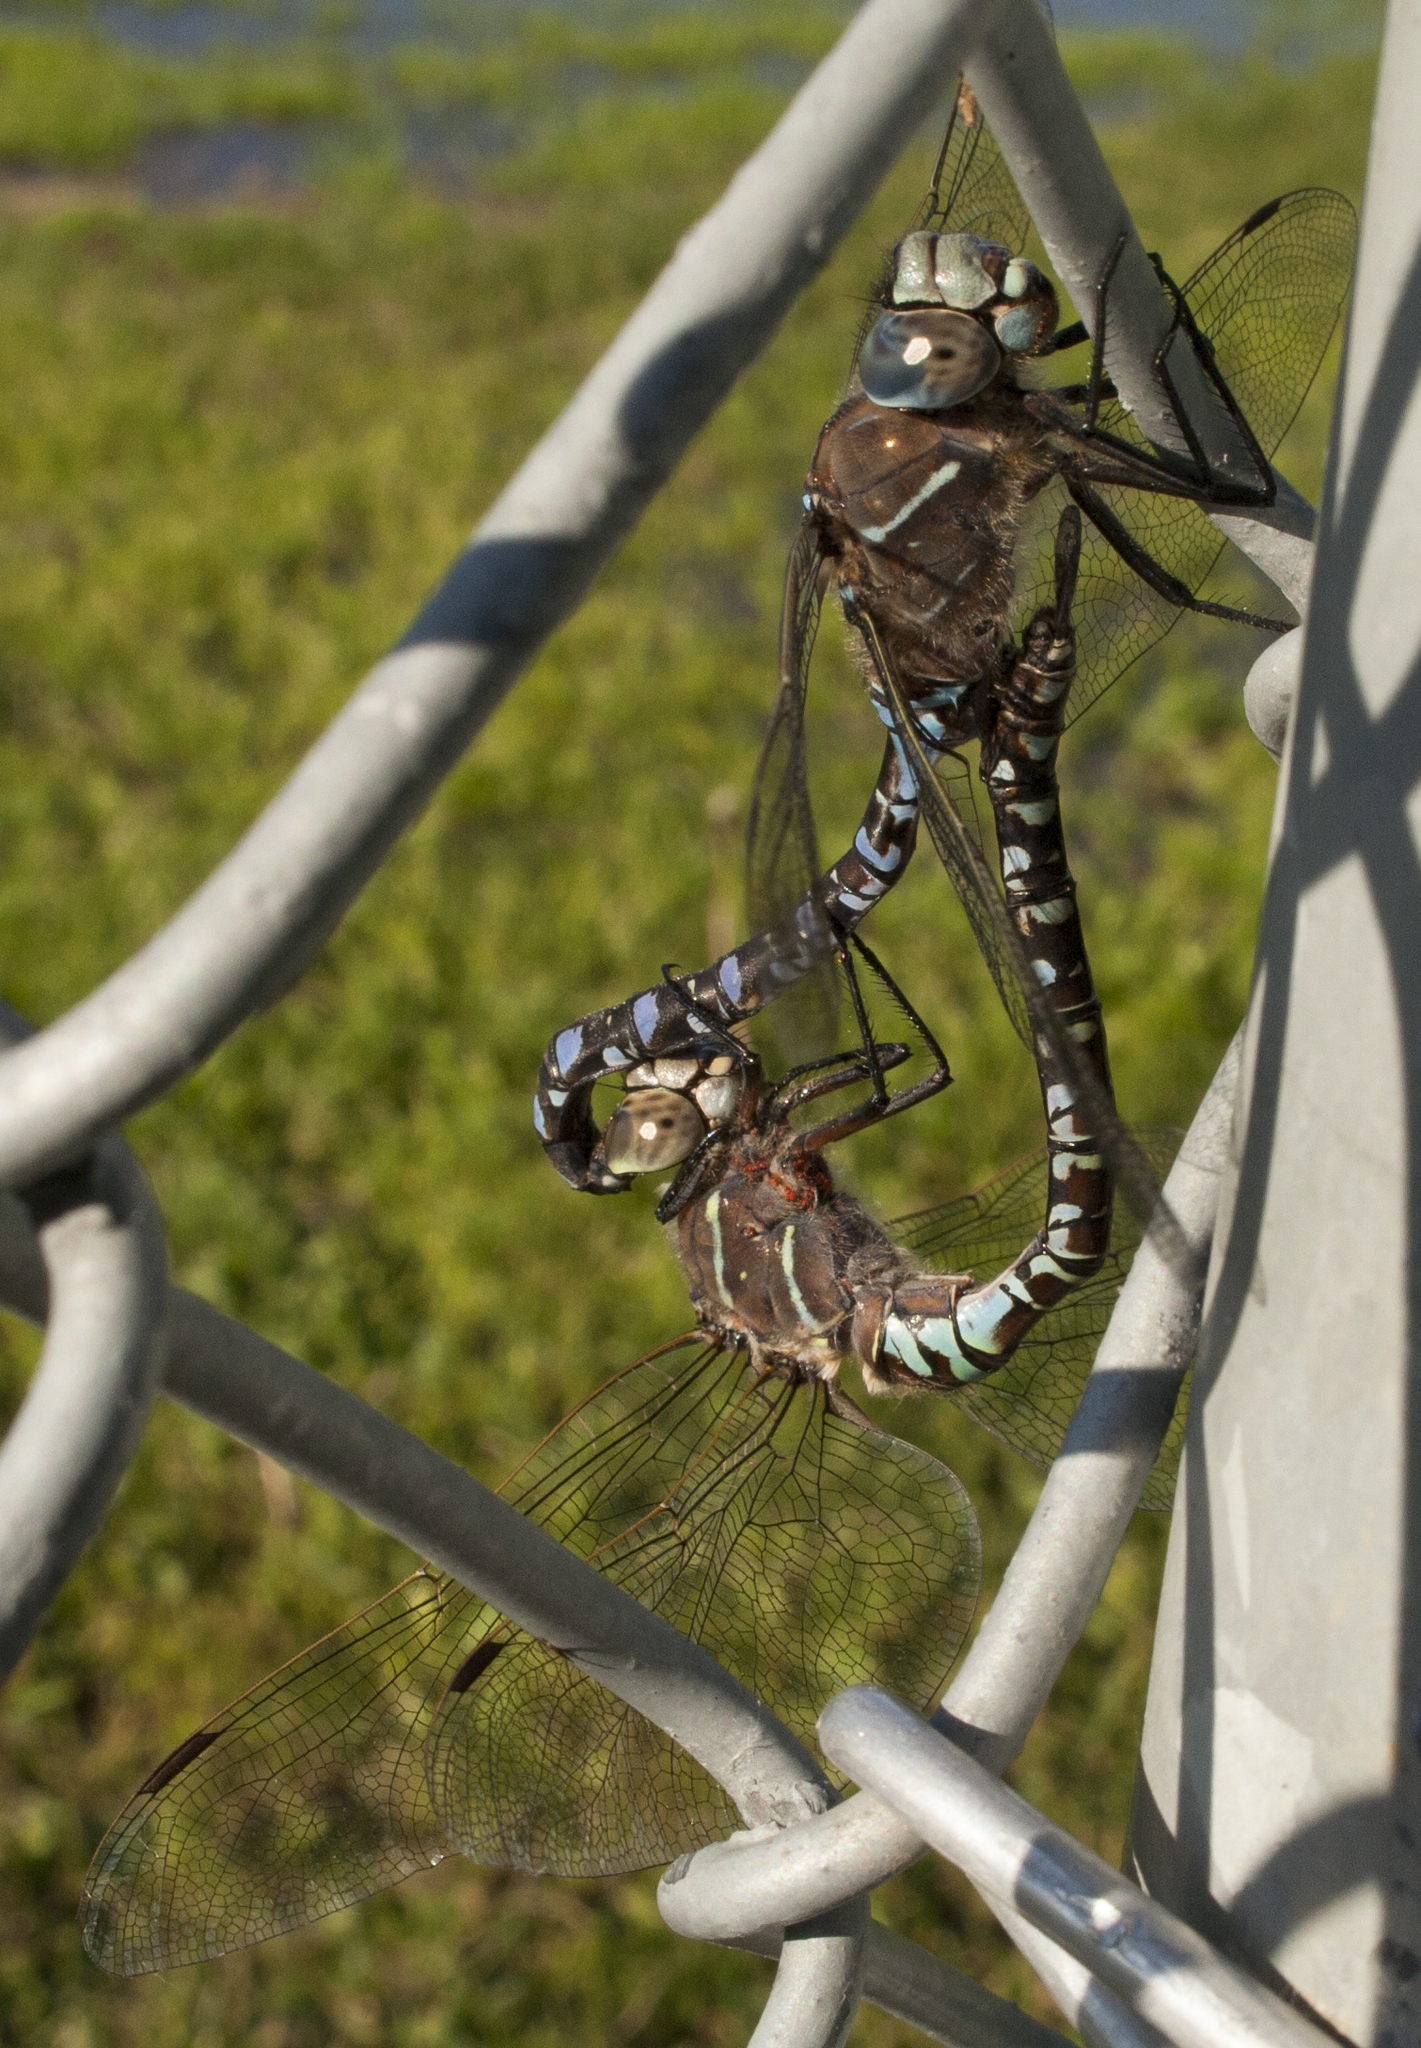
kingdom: Animalia
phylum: Arthropoda
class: Insecta
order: Odonata
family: Aeshnidae
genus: Aeshna
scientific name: Aeshna interrupta
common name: Variable darner
